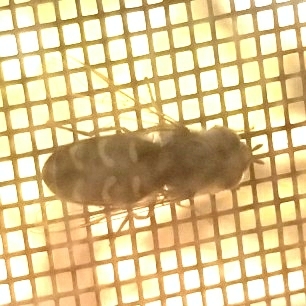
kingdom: Animalia
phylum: Arthropoda
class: Insecta
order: Diptera
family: Syrphidae
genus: Scaeva
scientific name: Scaeva affinis
